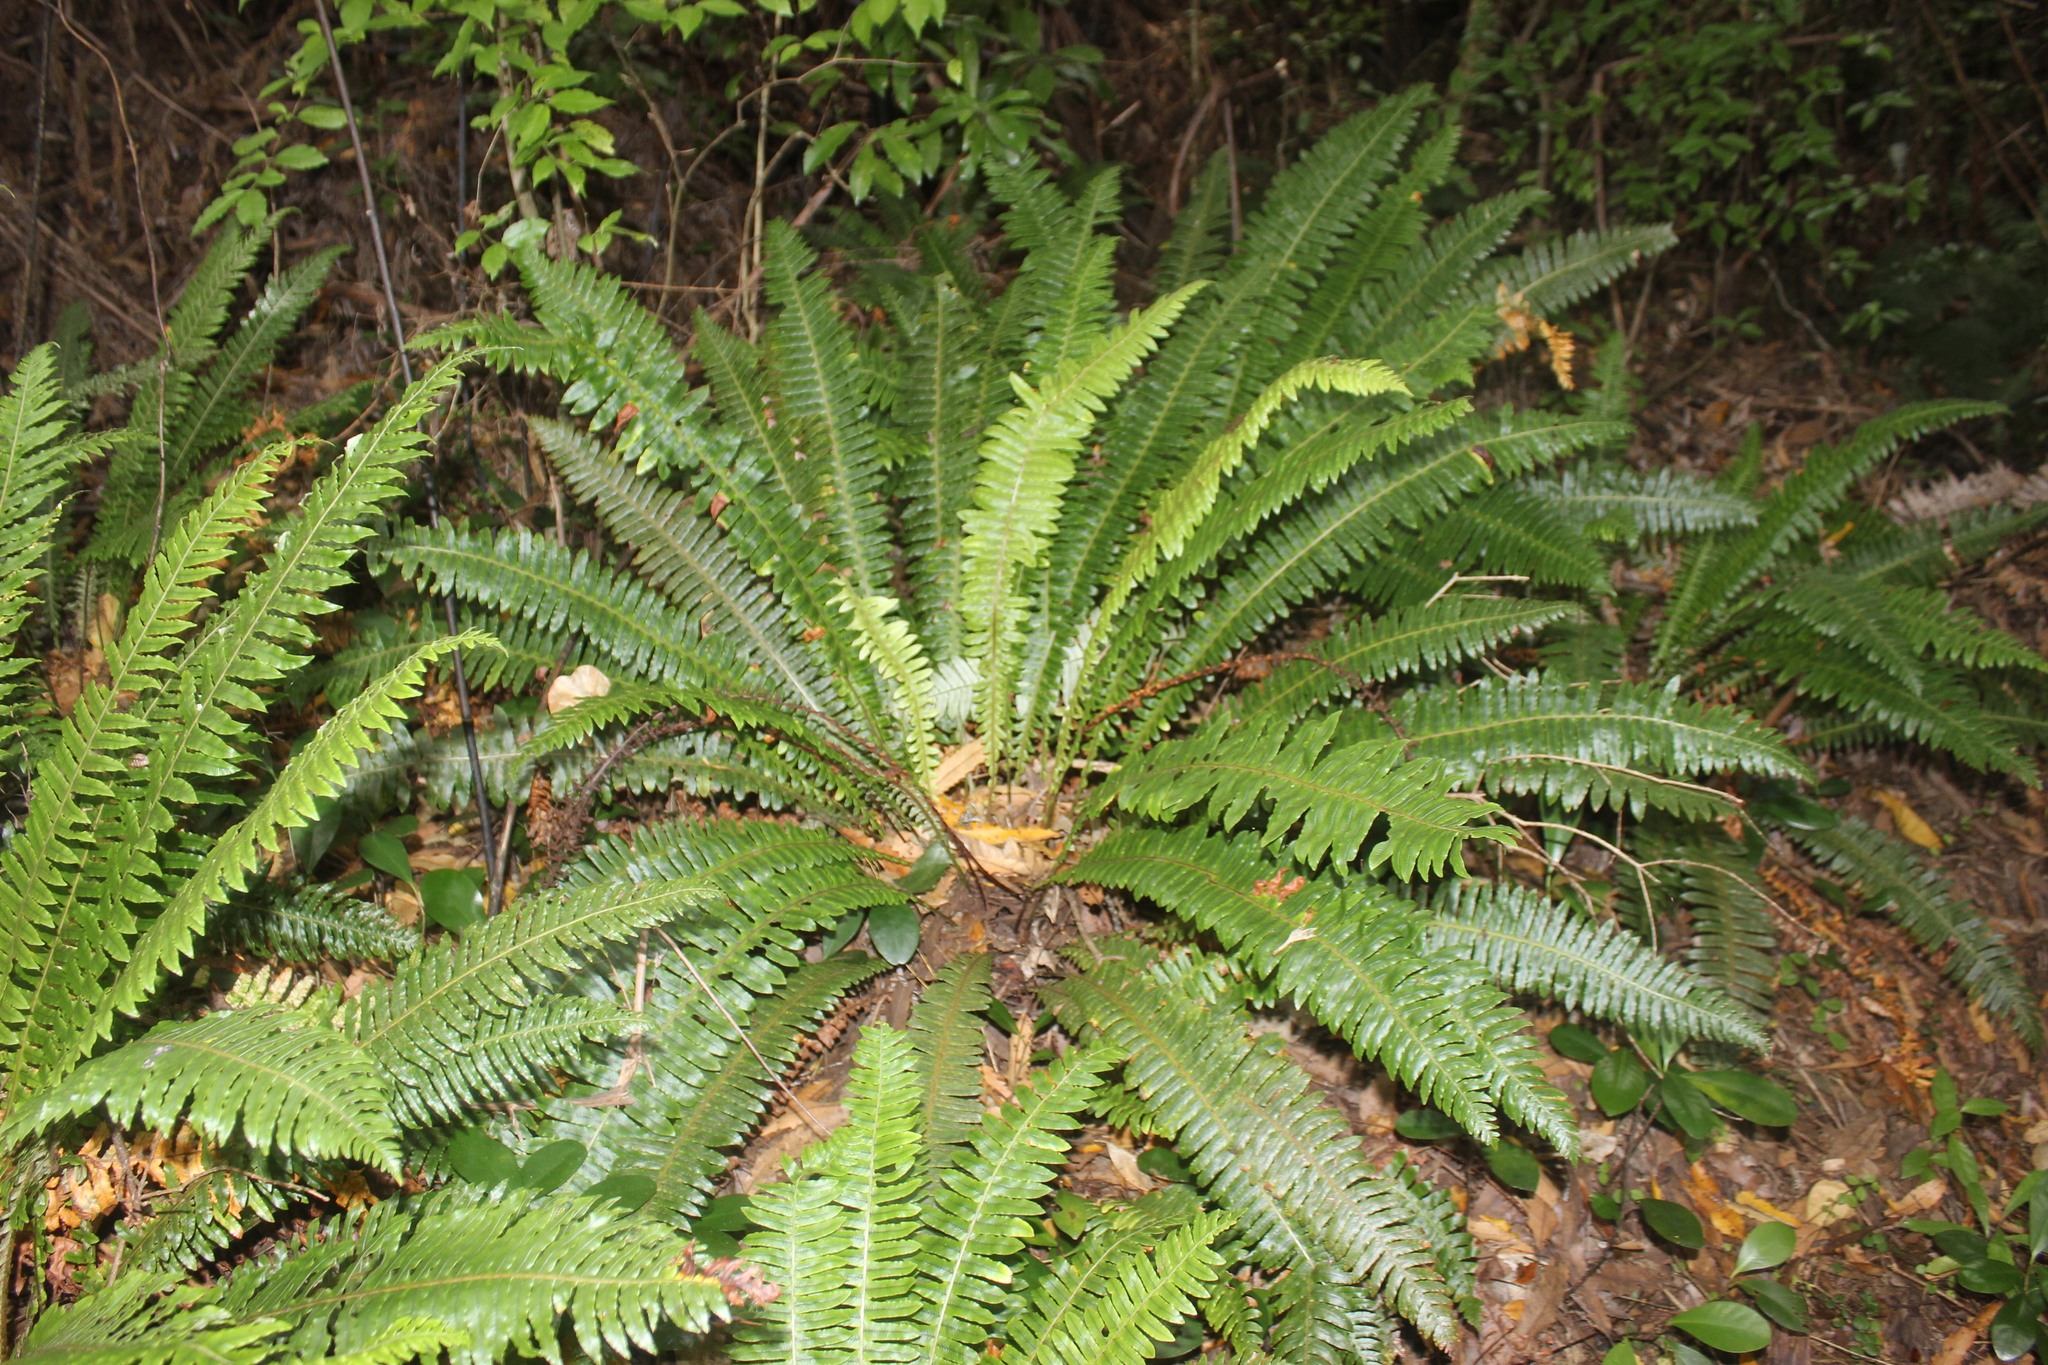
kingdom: Plantae
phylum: Tracheophyta
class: Polypodiopsida
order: Polypodiales
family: Blechnaceae
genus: Lomaria
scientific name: Lomaria discolor
